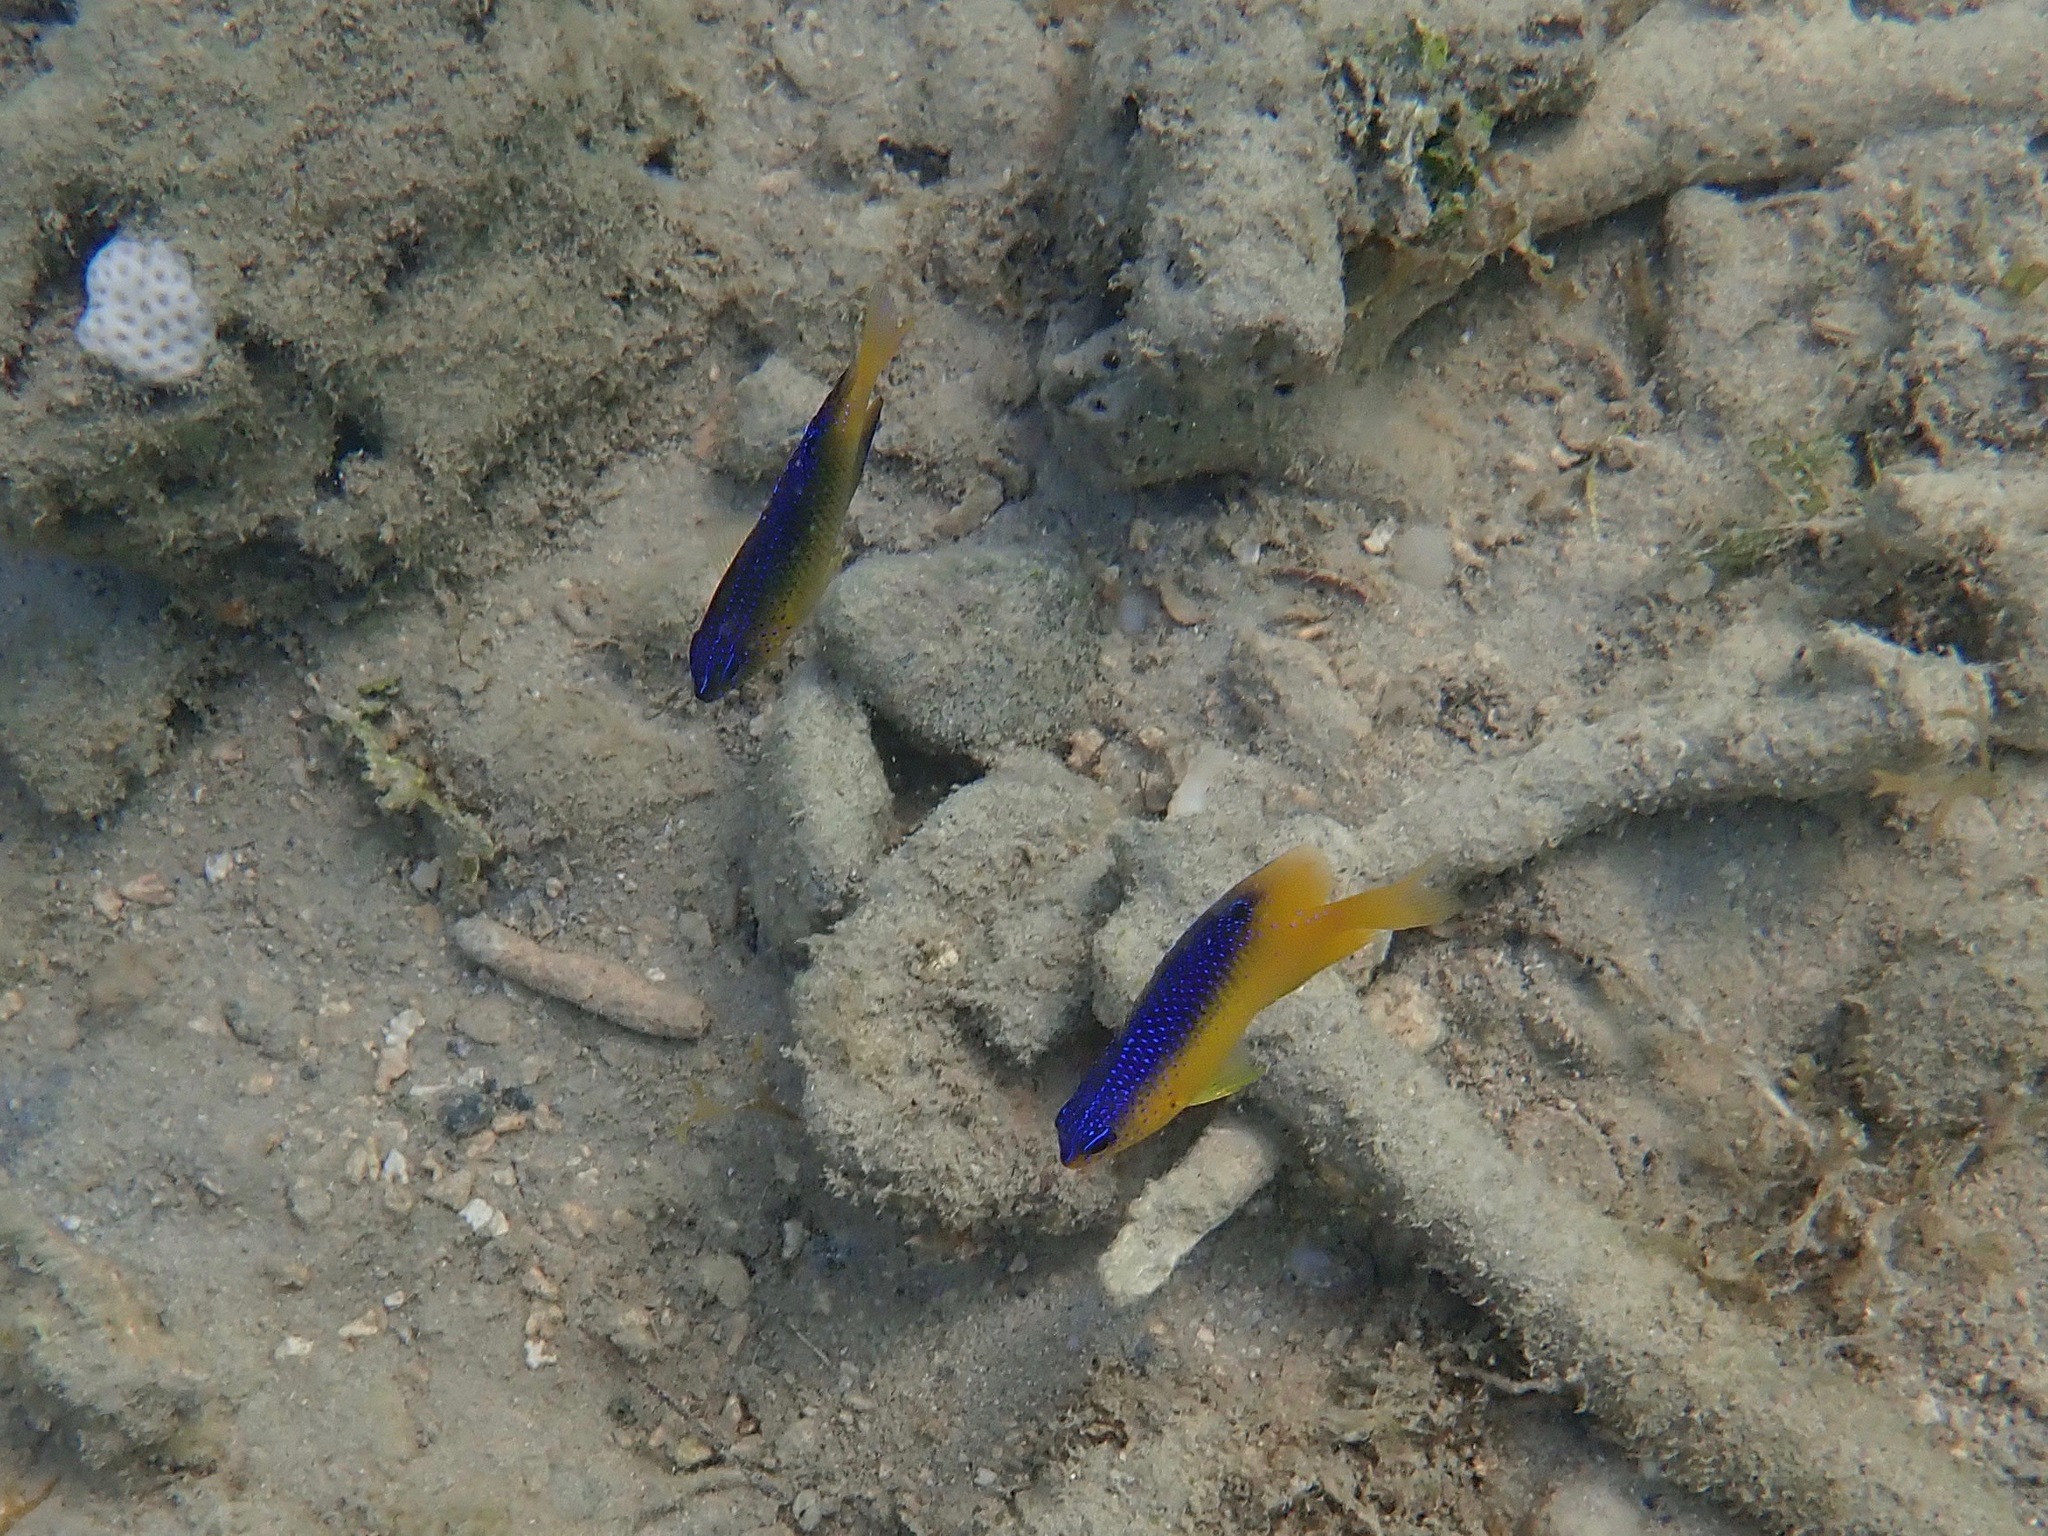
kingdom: Animalia
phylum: Chordata
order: Perciformes
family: Pomacentridae
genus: Stegastes
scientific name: Stegastes leucostictus
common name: Beaugregory
